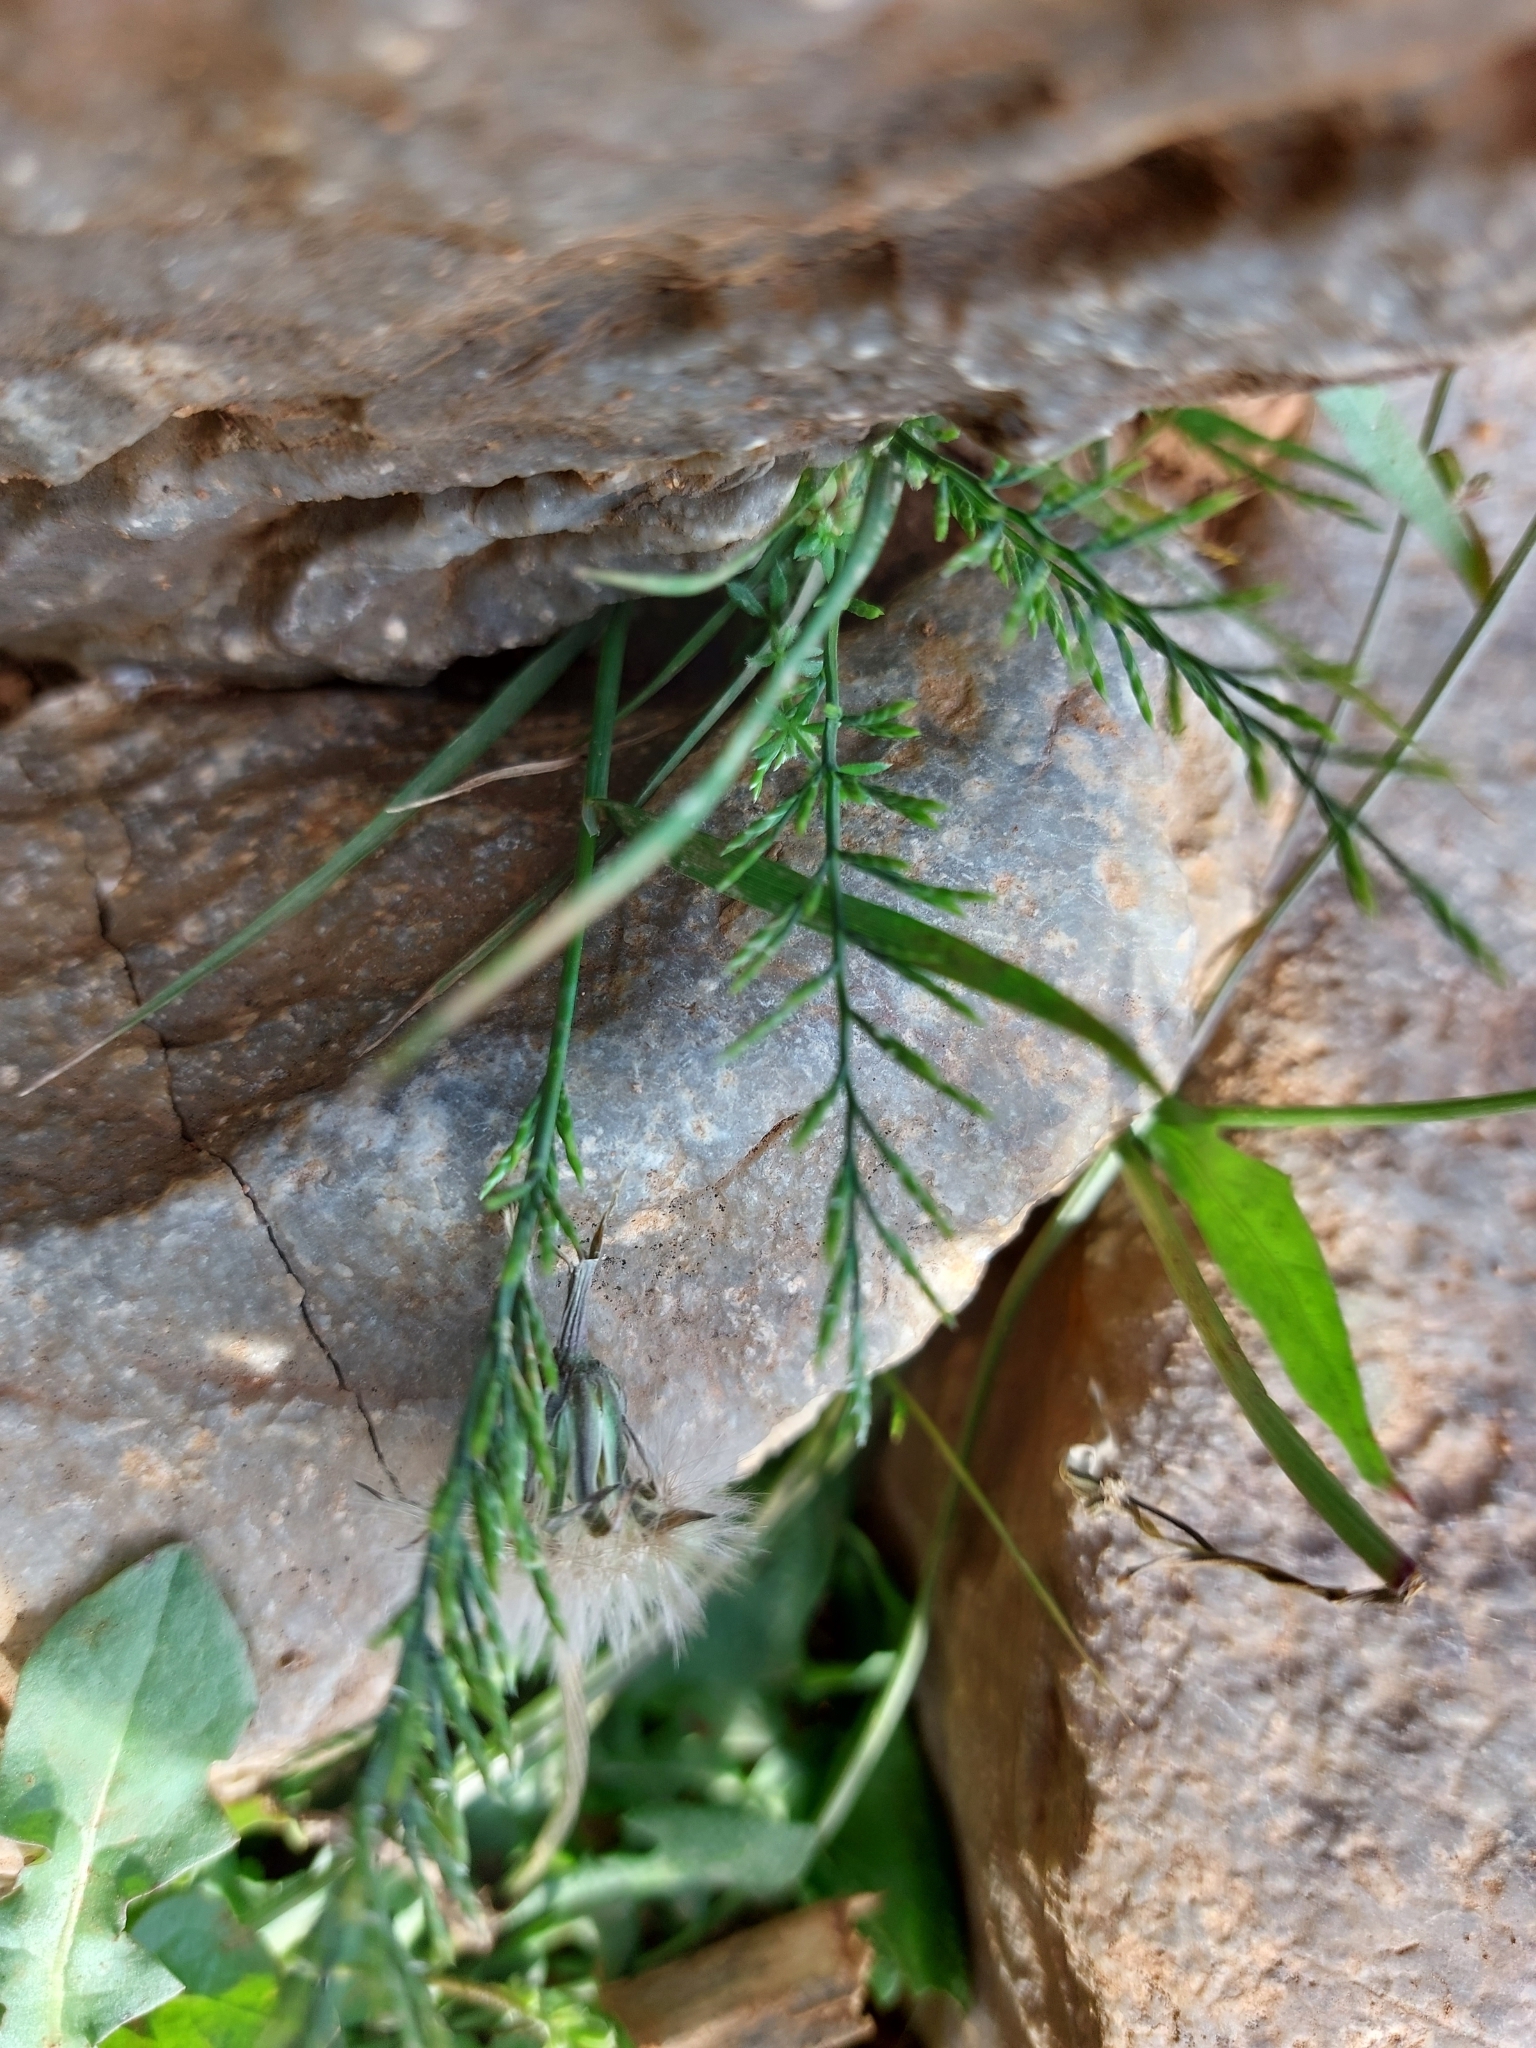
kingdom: Plantae
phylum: Tracheophyta
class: Liliopsida
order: Poales
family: Poaceae
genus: Catapodium
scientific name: Catapodium rigidum
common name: Fern-grass
